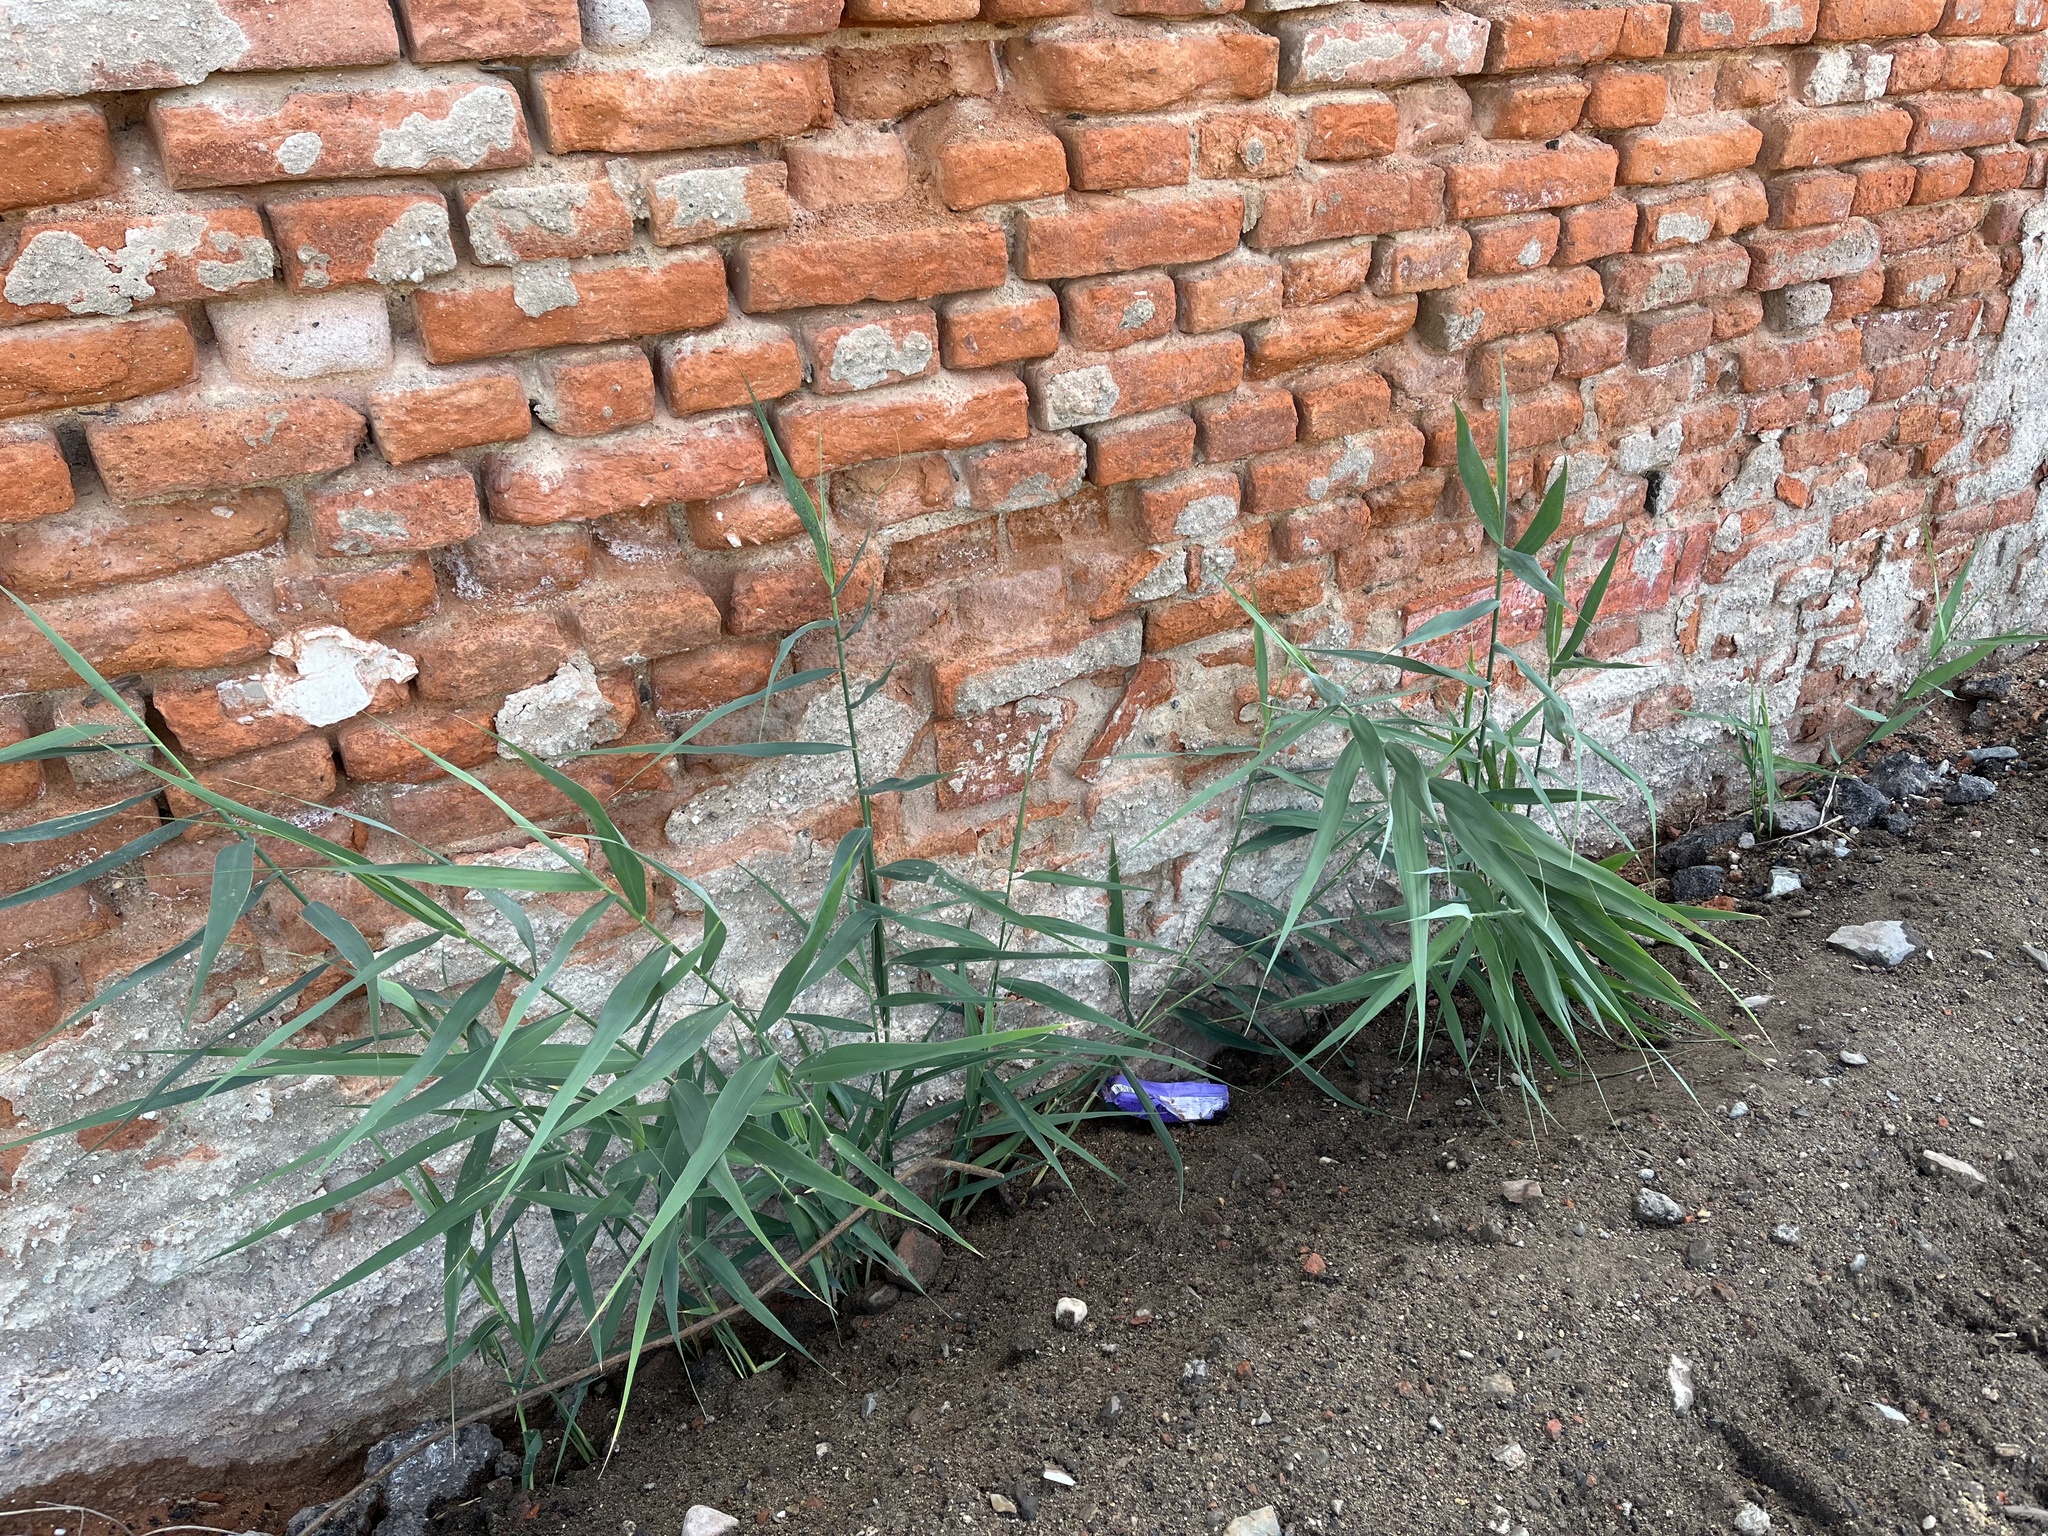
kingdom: Plantae
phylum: Tracheophyta
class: Liliopsida
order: Poales
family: Poaceae
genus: Phragmites
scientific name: Phragmites australis
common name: Common reed
